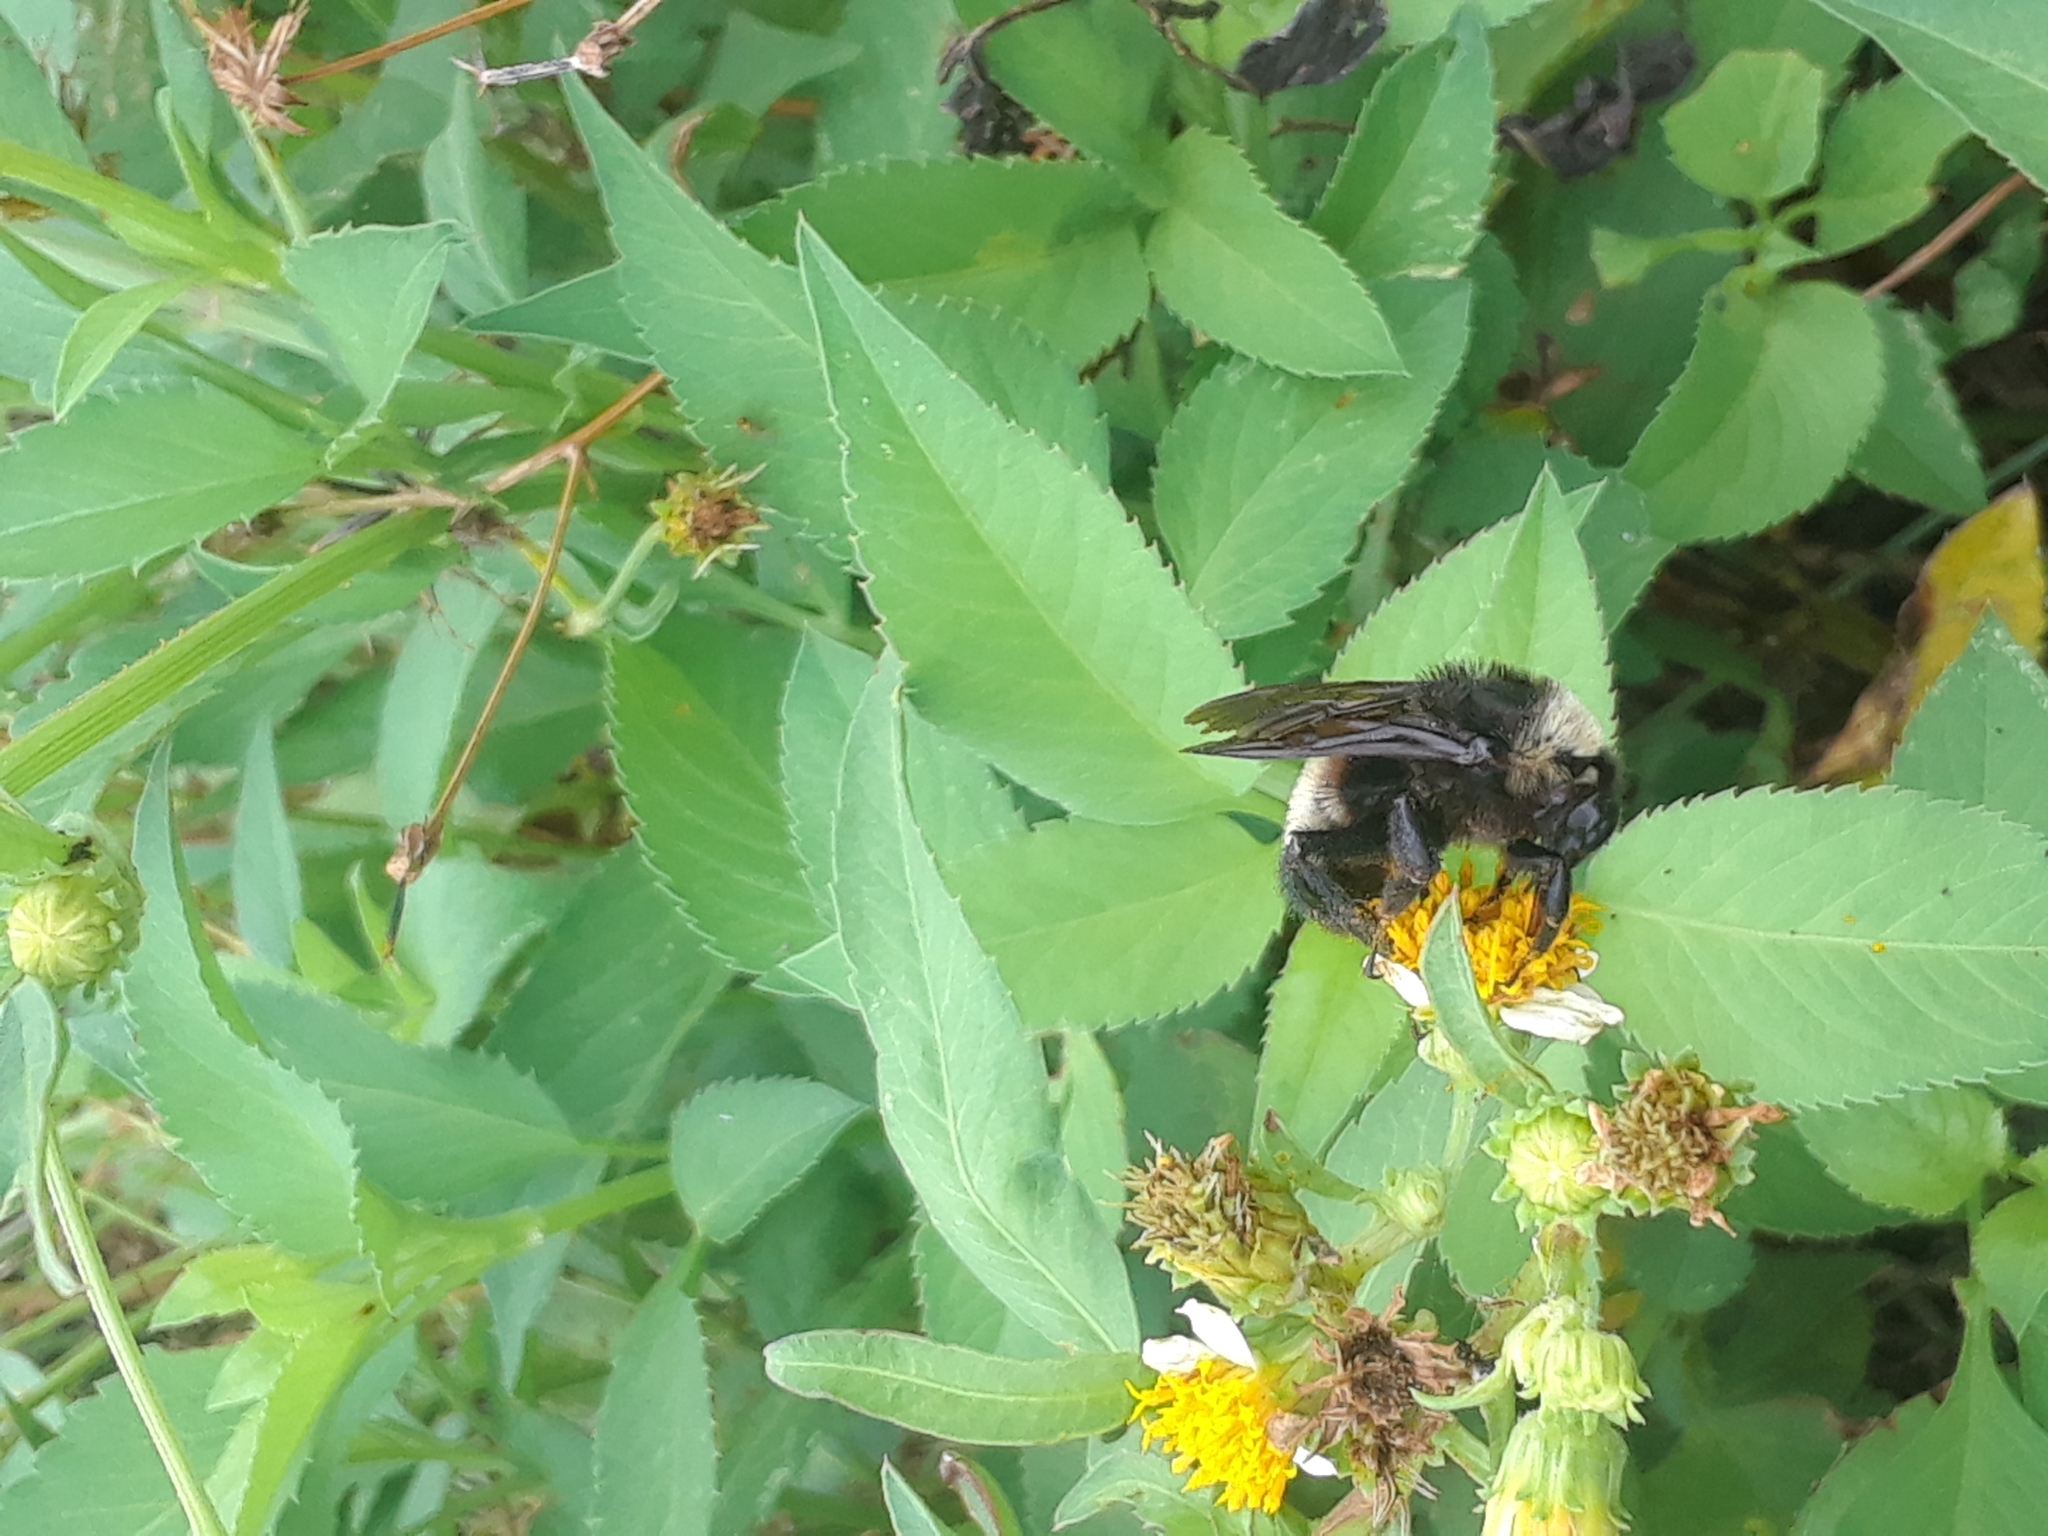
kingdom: Animalia
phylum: Arthropoda
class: Insecta
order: Hymenoptera
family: Apidae
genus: Bombus
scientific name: Bombus pensylvanicus
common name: Bumble bee
